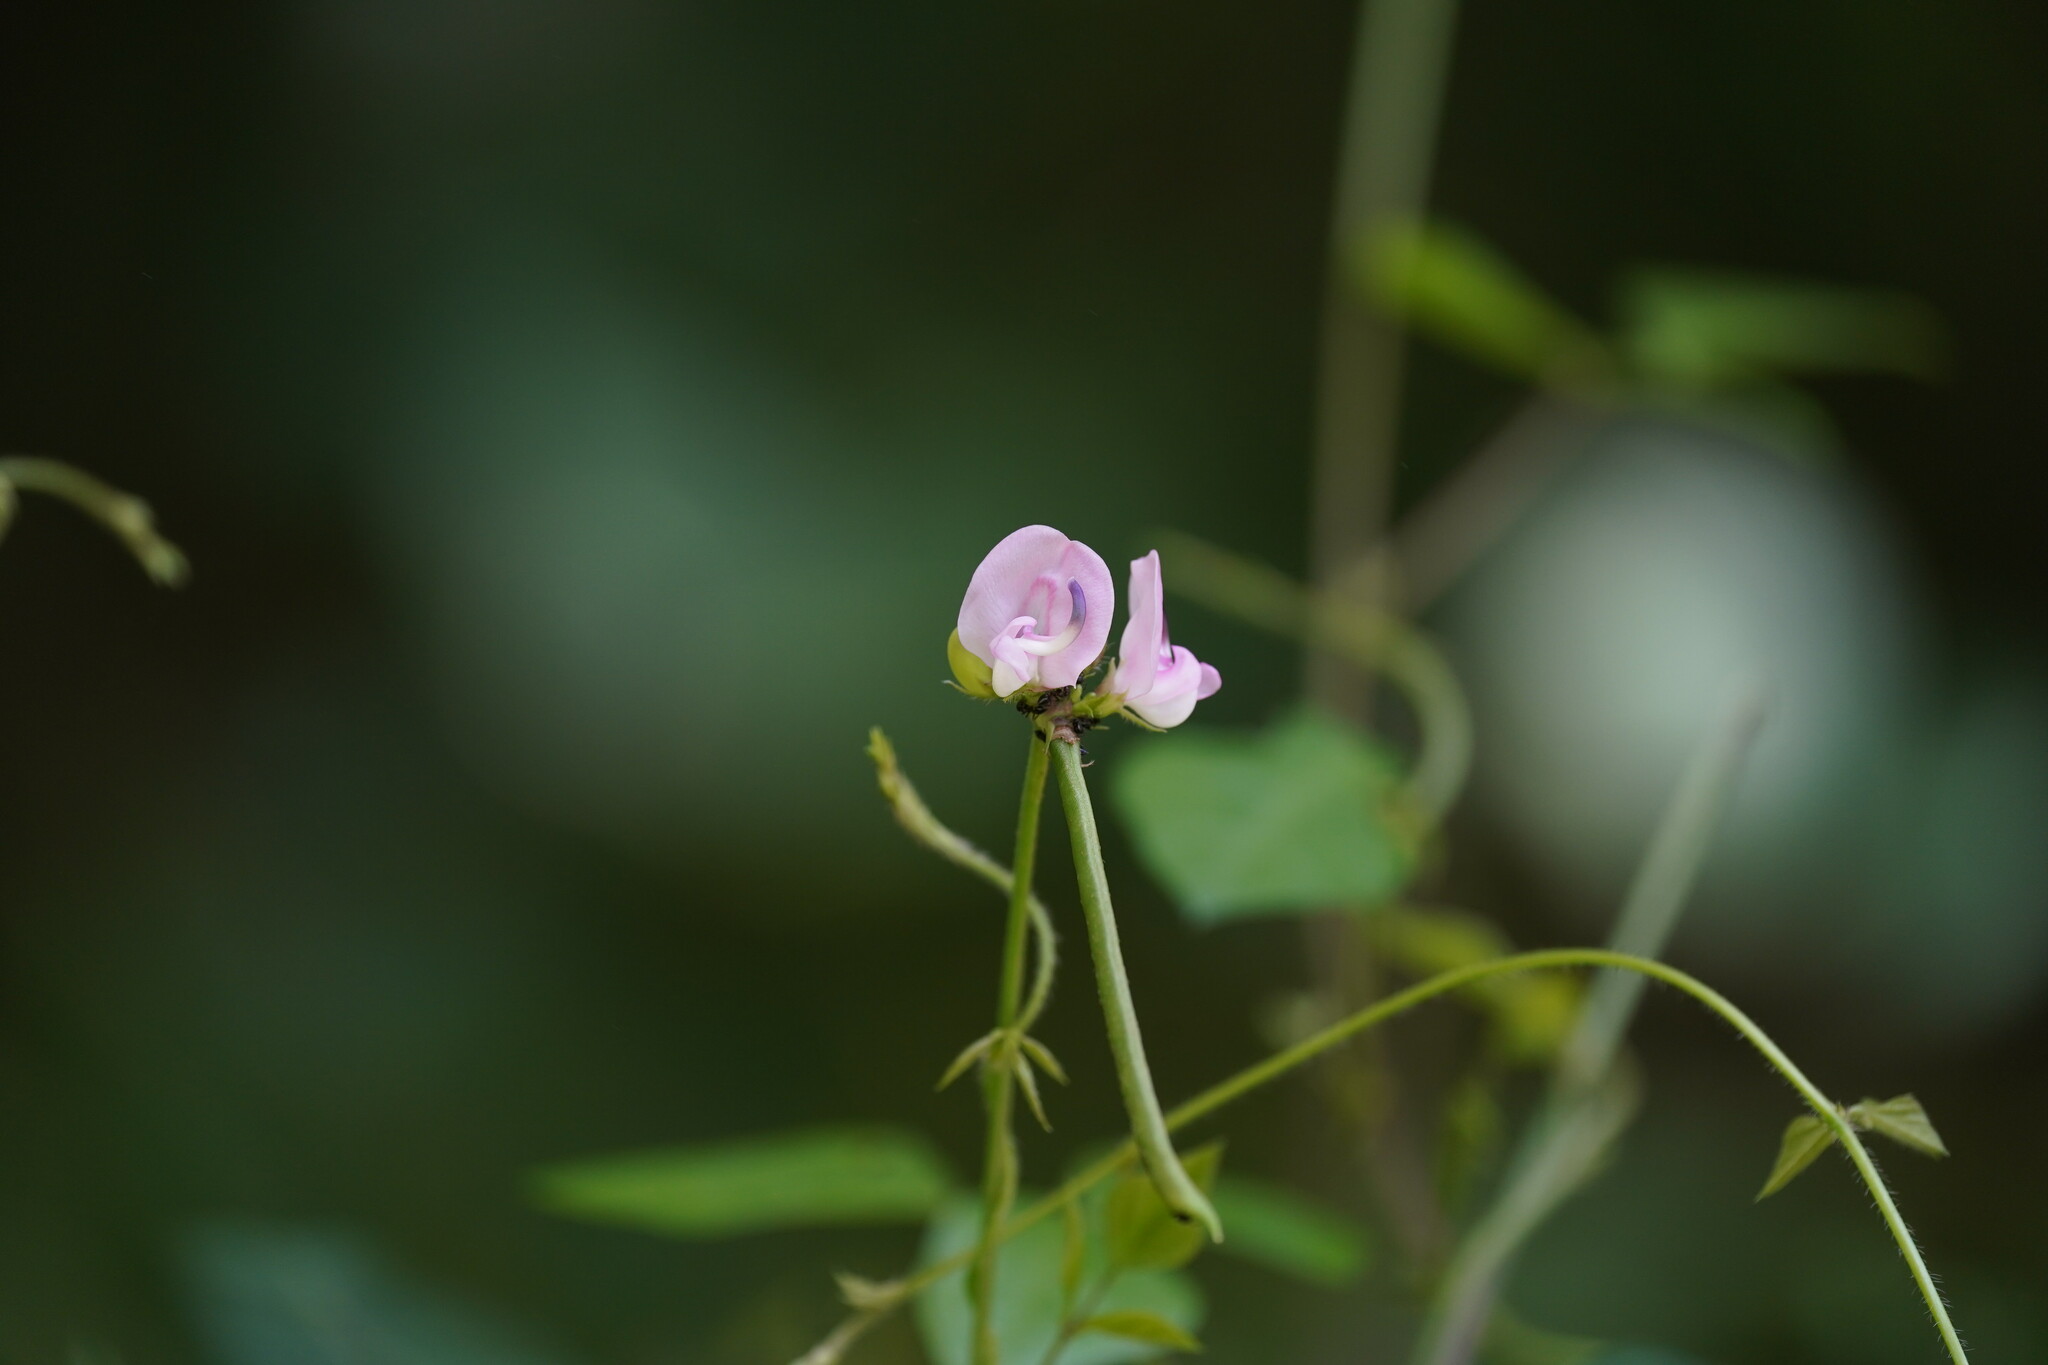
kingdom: Plantae
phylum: Tracheophyta
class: Magnoliopsida
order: Fabales
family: Fabaceae
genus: Strophostyles
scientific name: Strophostyles helvola
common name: Trailing wild bean
